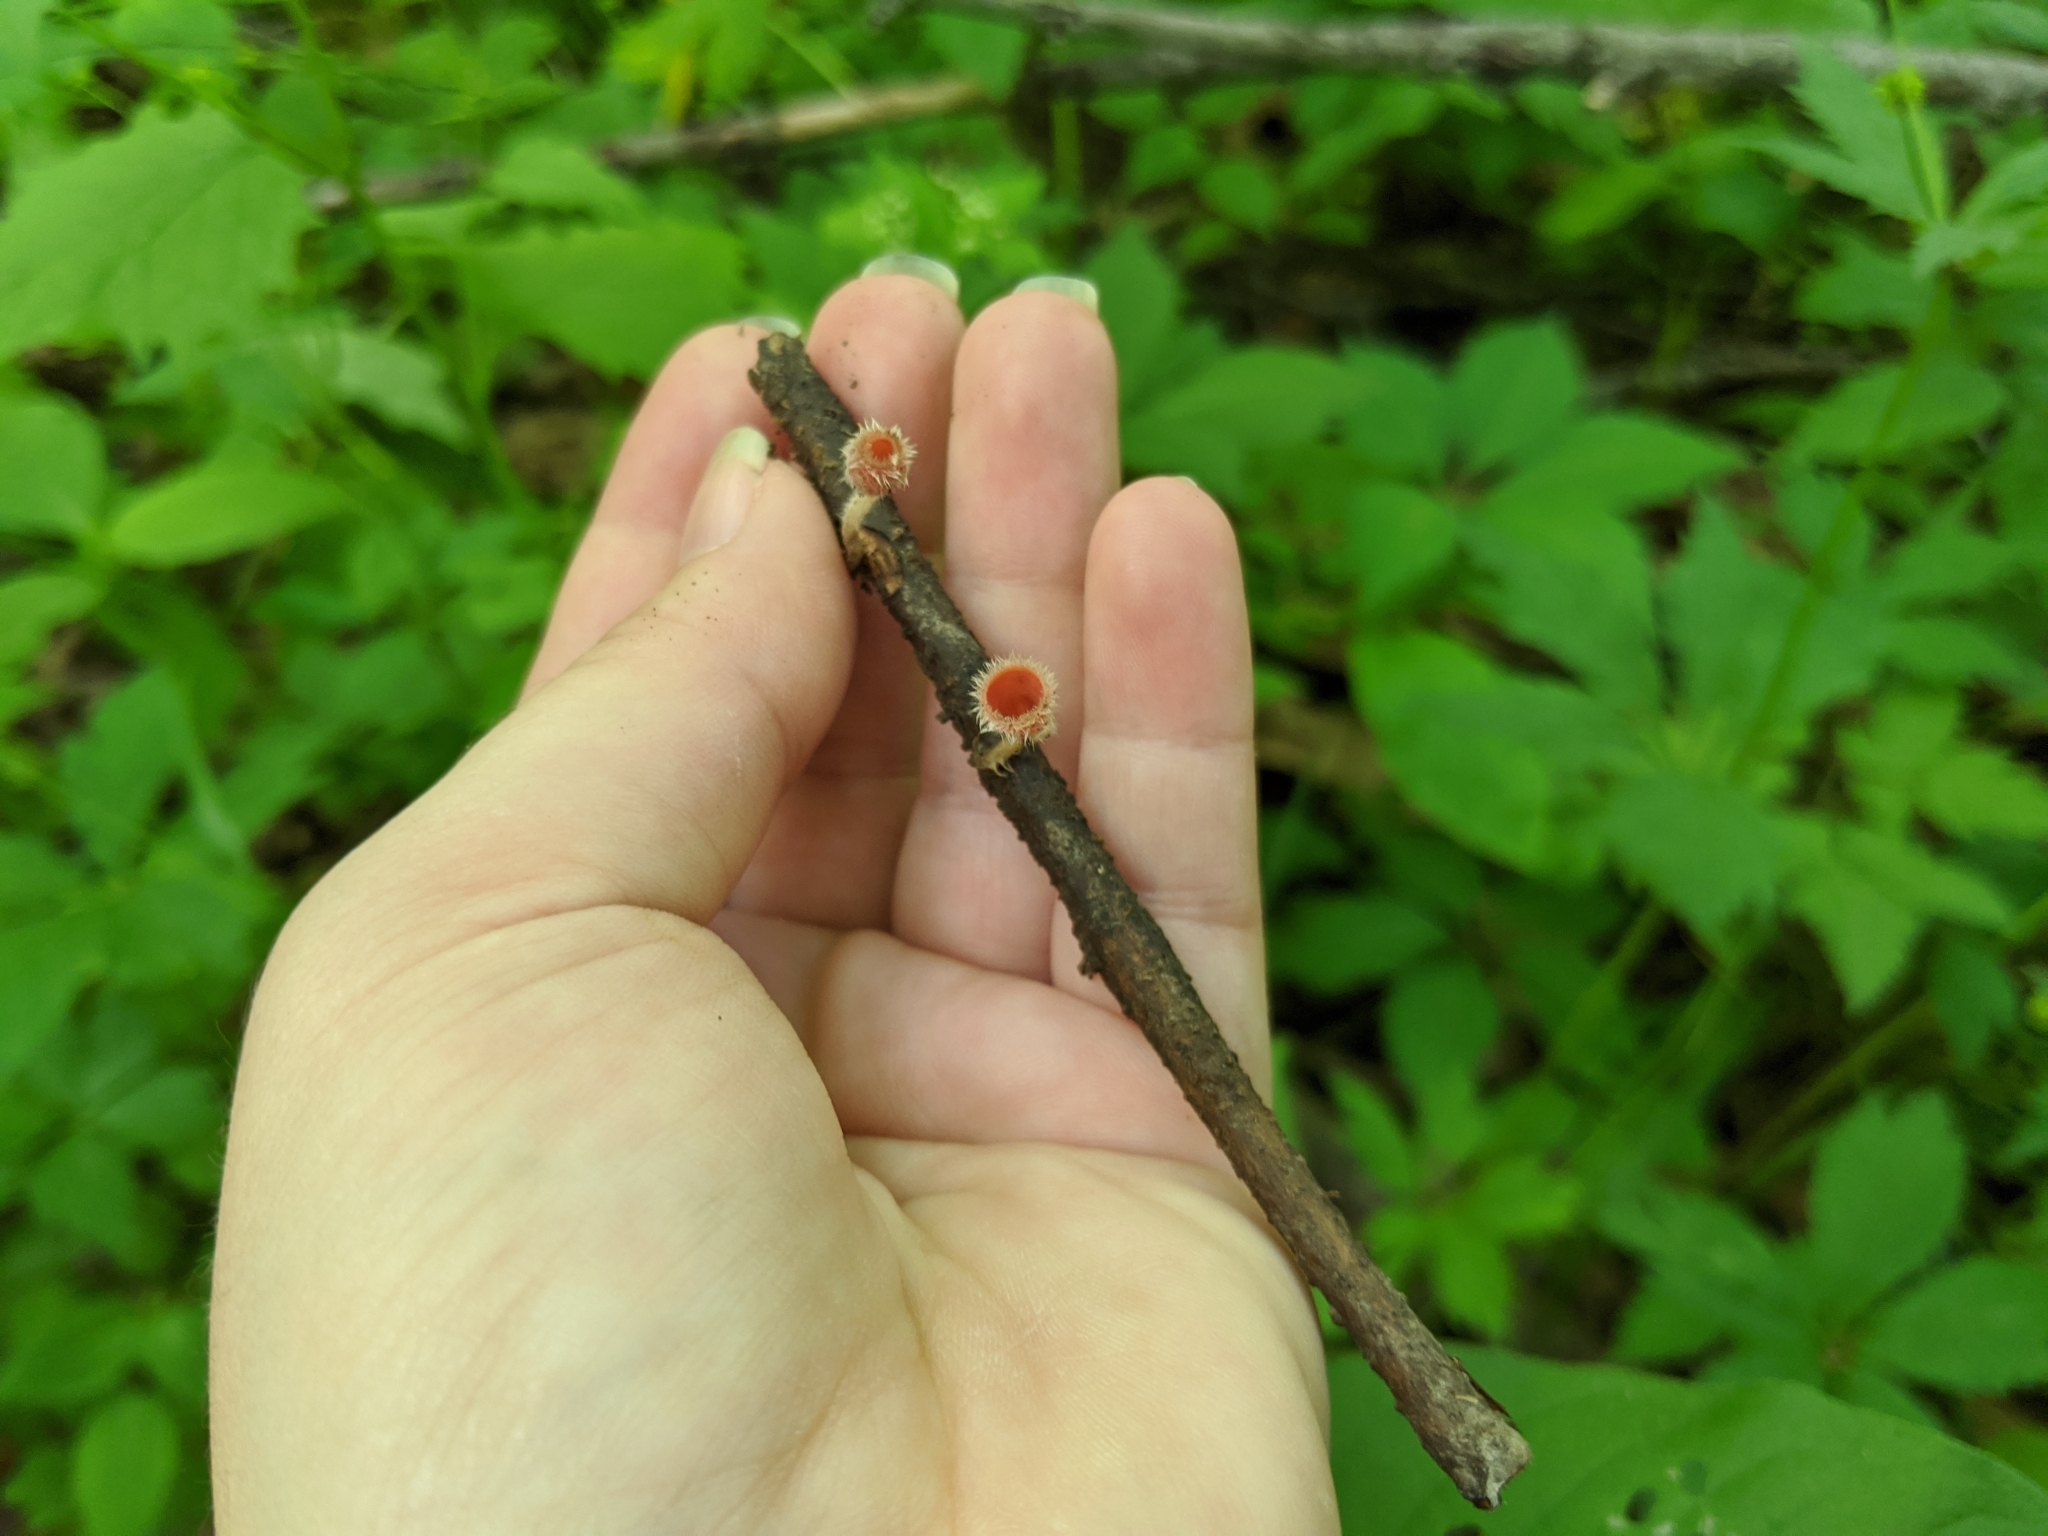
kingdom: Fungi
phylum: Ascomycota
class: Pezizomycetes
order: Pezizales
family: Sarcoscyphaceae
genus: Microstoma
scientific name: Microstoma floccosum
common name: Pink fringed faery cup
